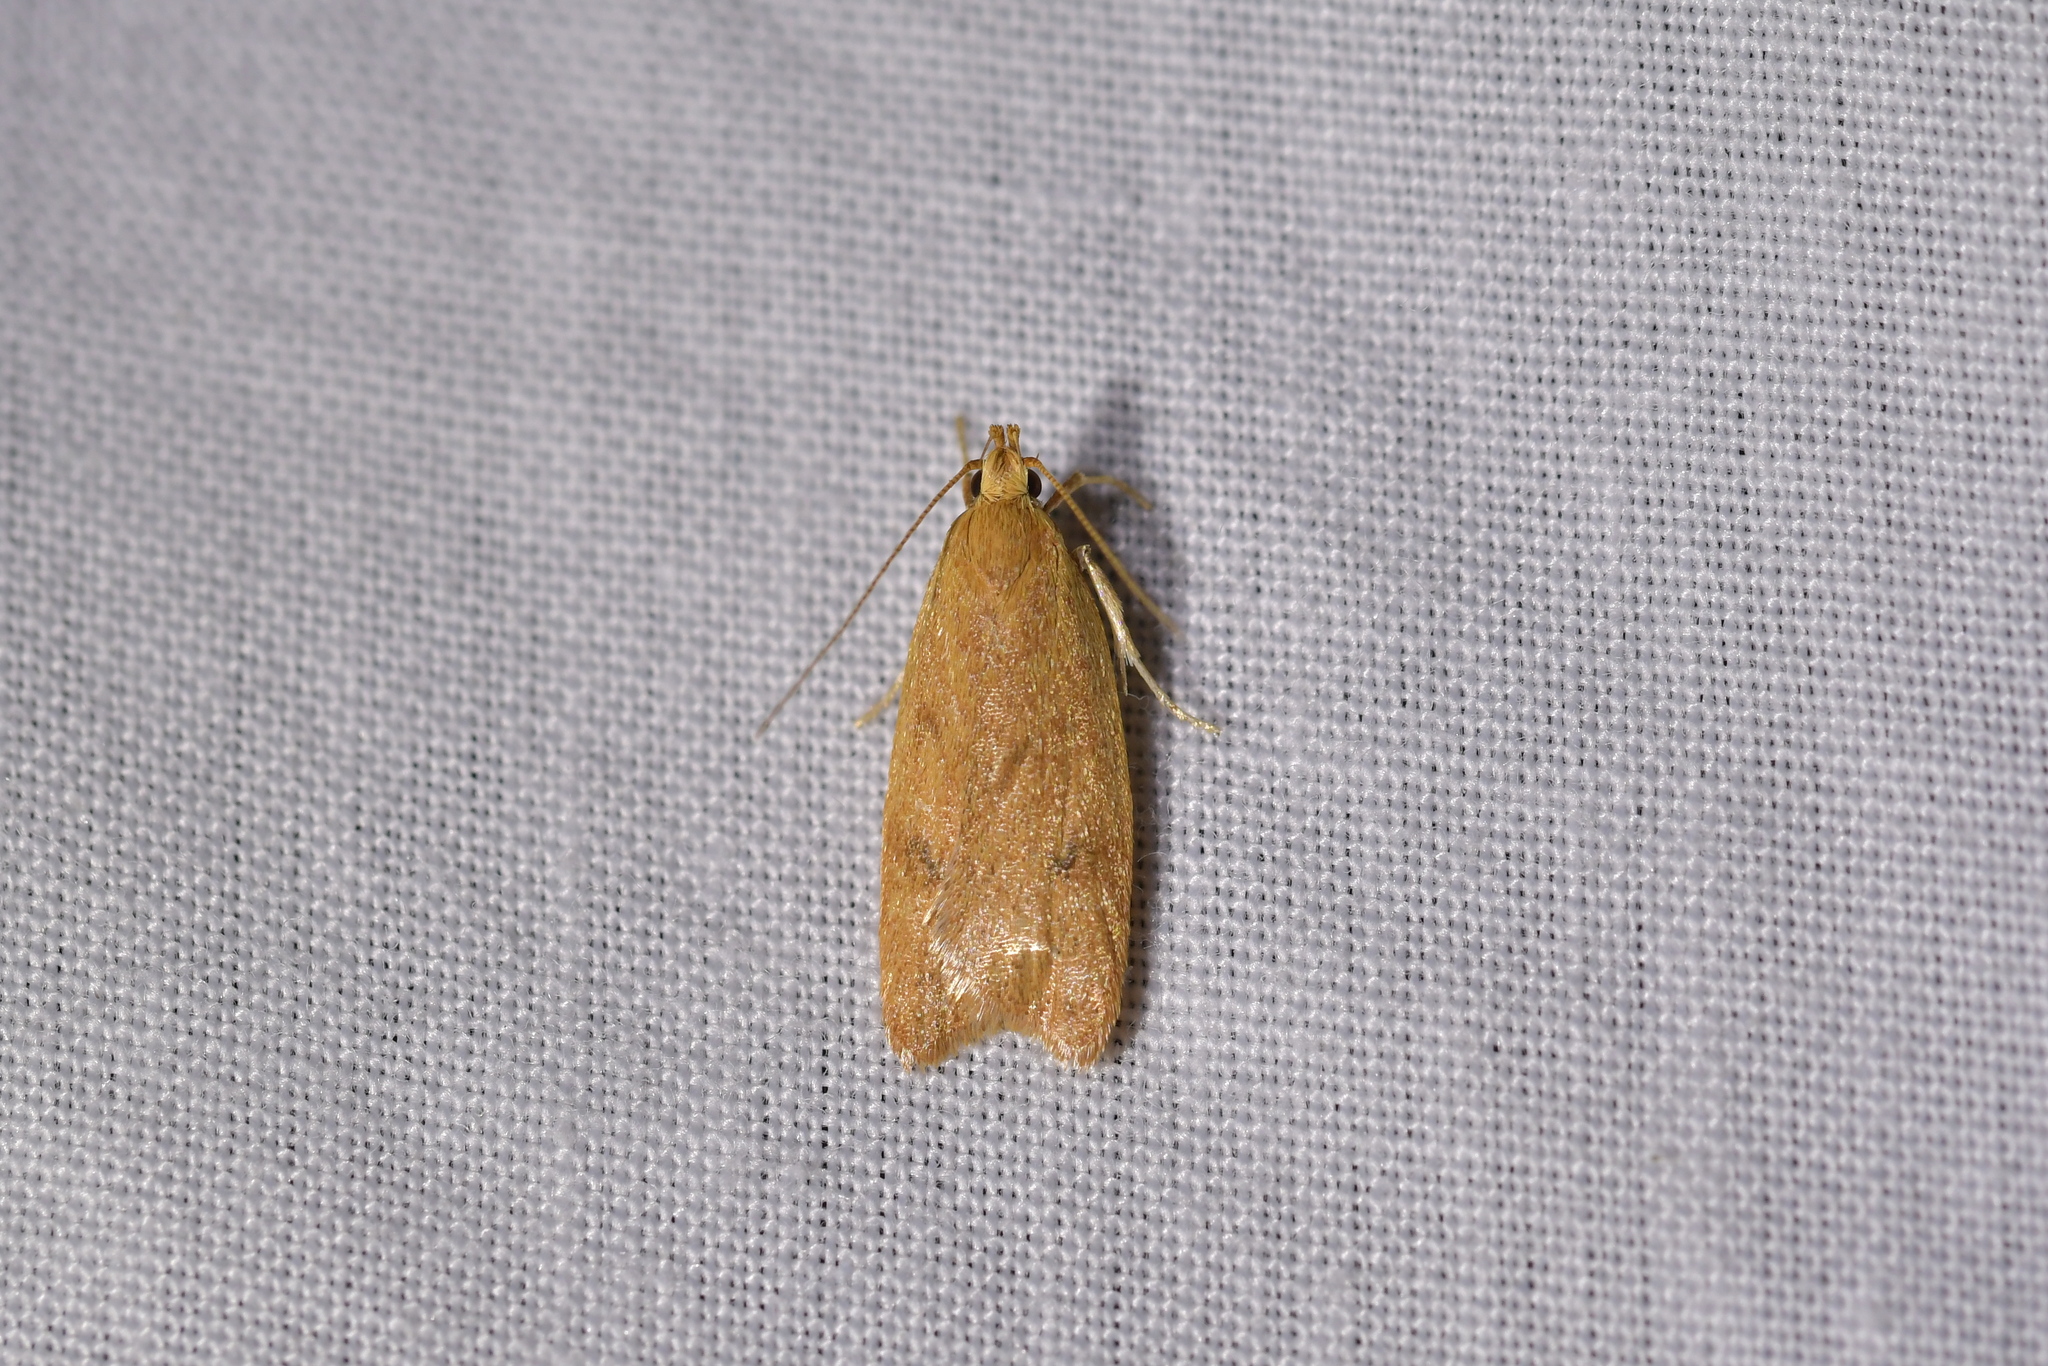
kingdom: Animalia
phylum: Arthropoda
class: Insecta
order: Lepidoptera
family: Oecophoridae
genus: Gymnobathra
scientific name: Gymnobathra sarcoxantha
